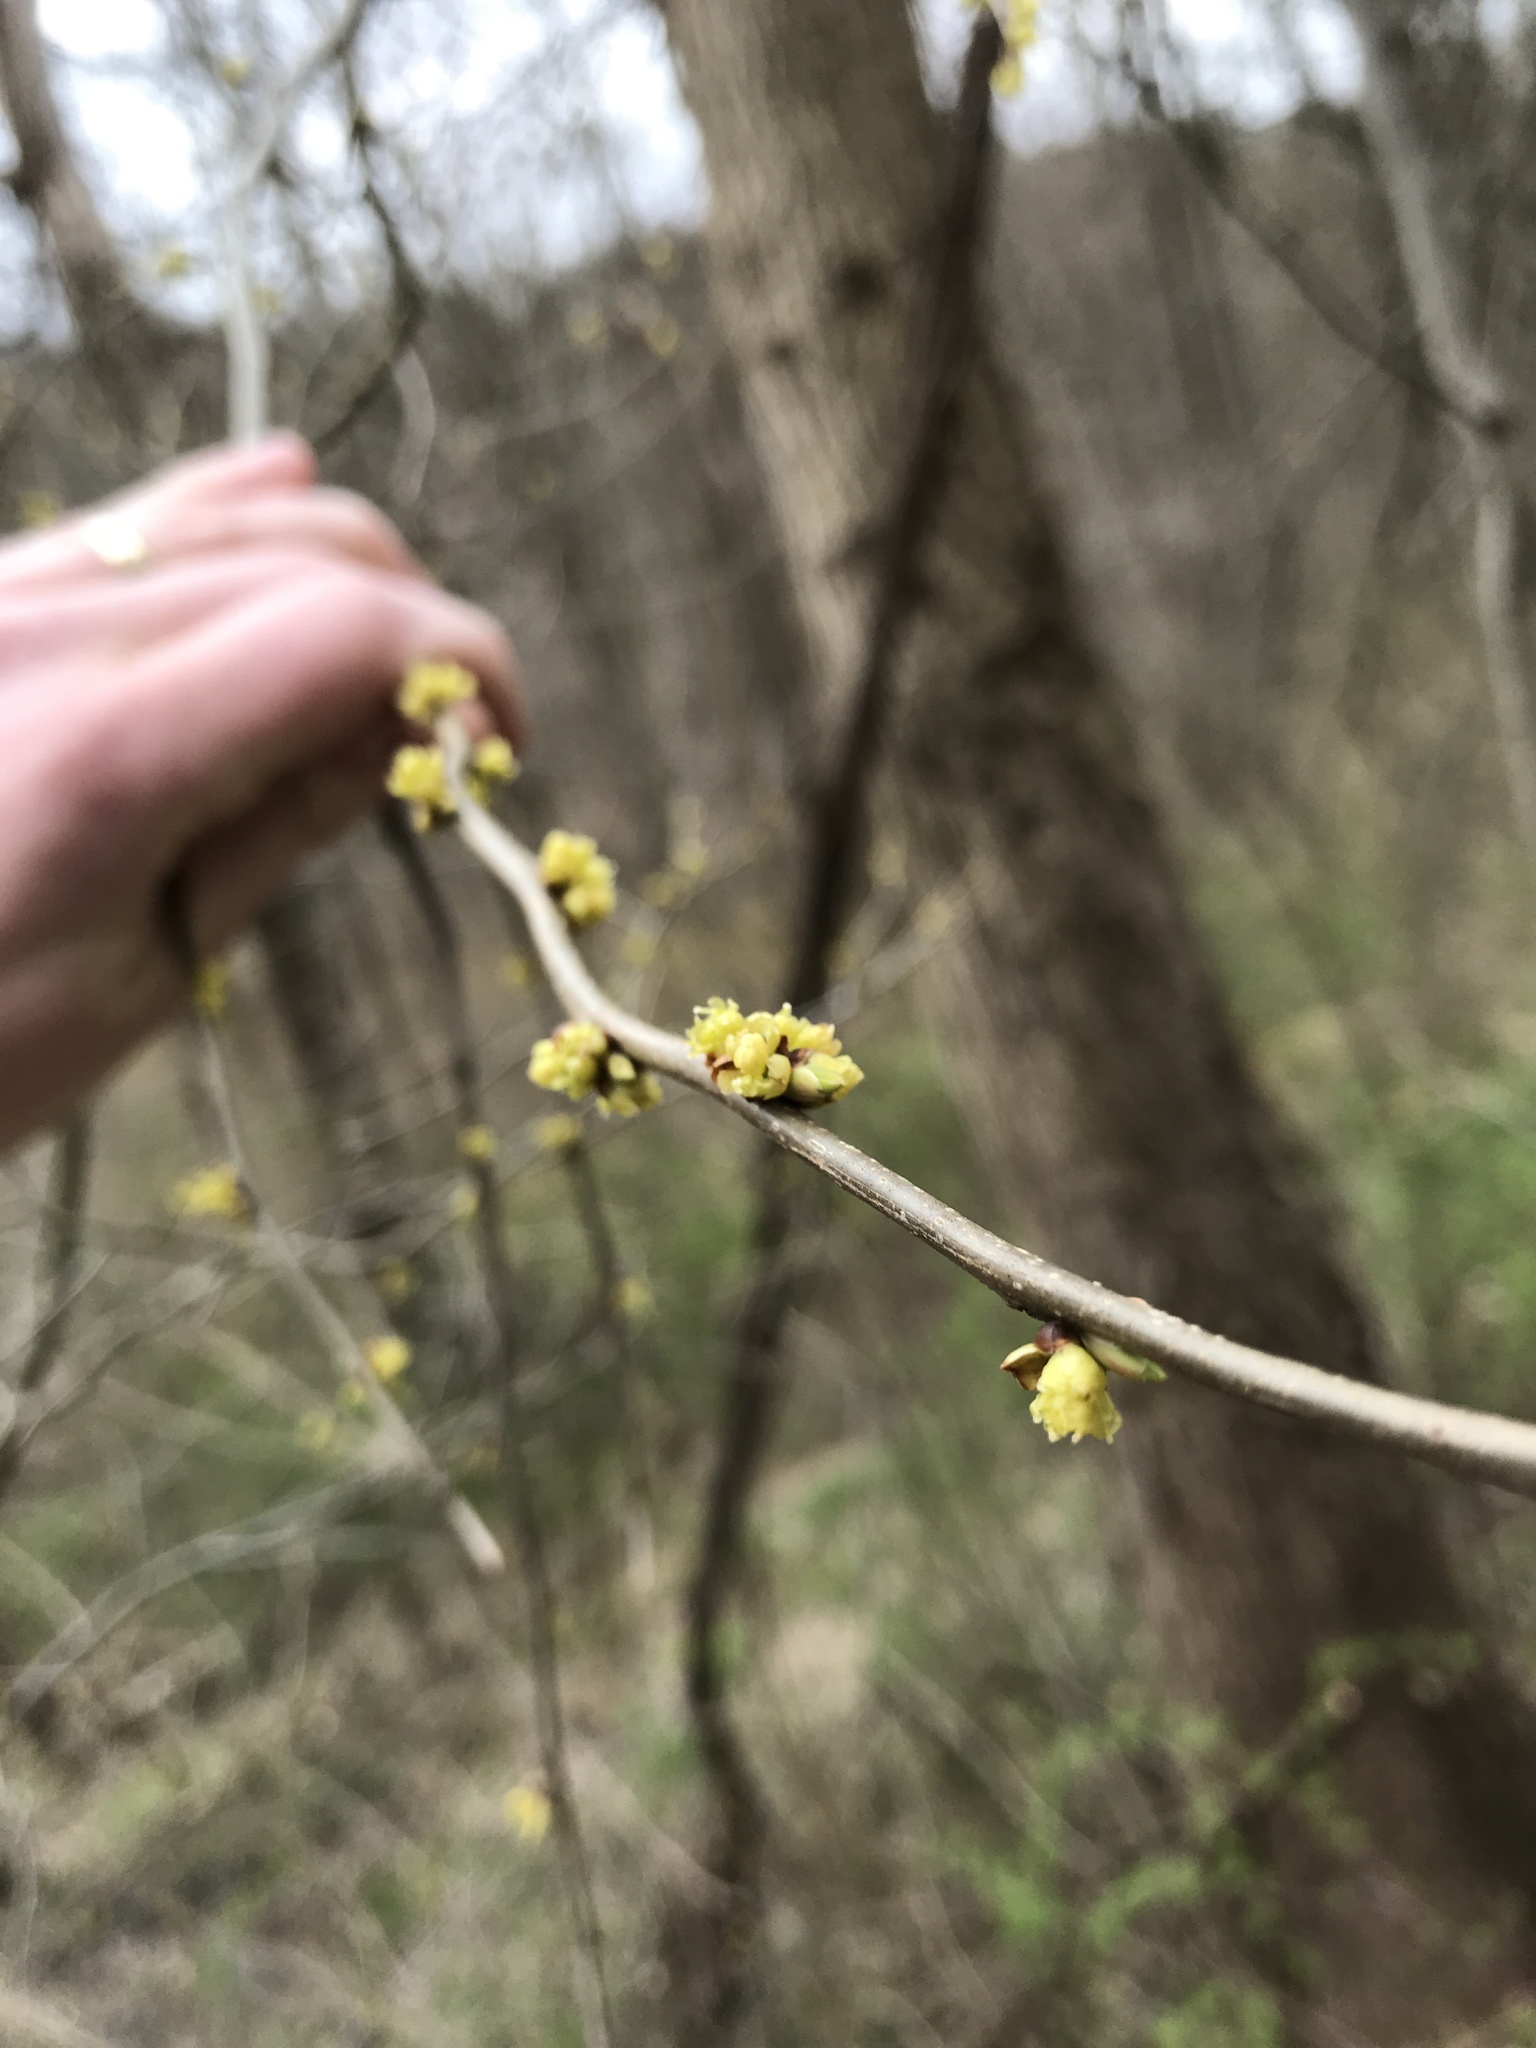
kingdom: Plantae
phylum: Tracheophyta
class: Magnoliopsida
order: Laurales
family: Lauraceae
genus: Lindera
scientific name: Lindera benzoin
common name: Spicebush
